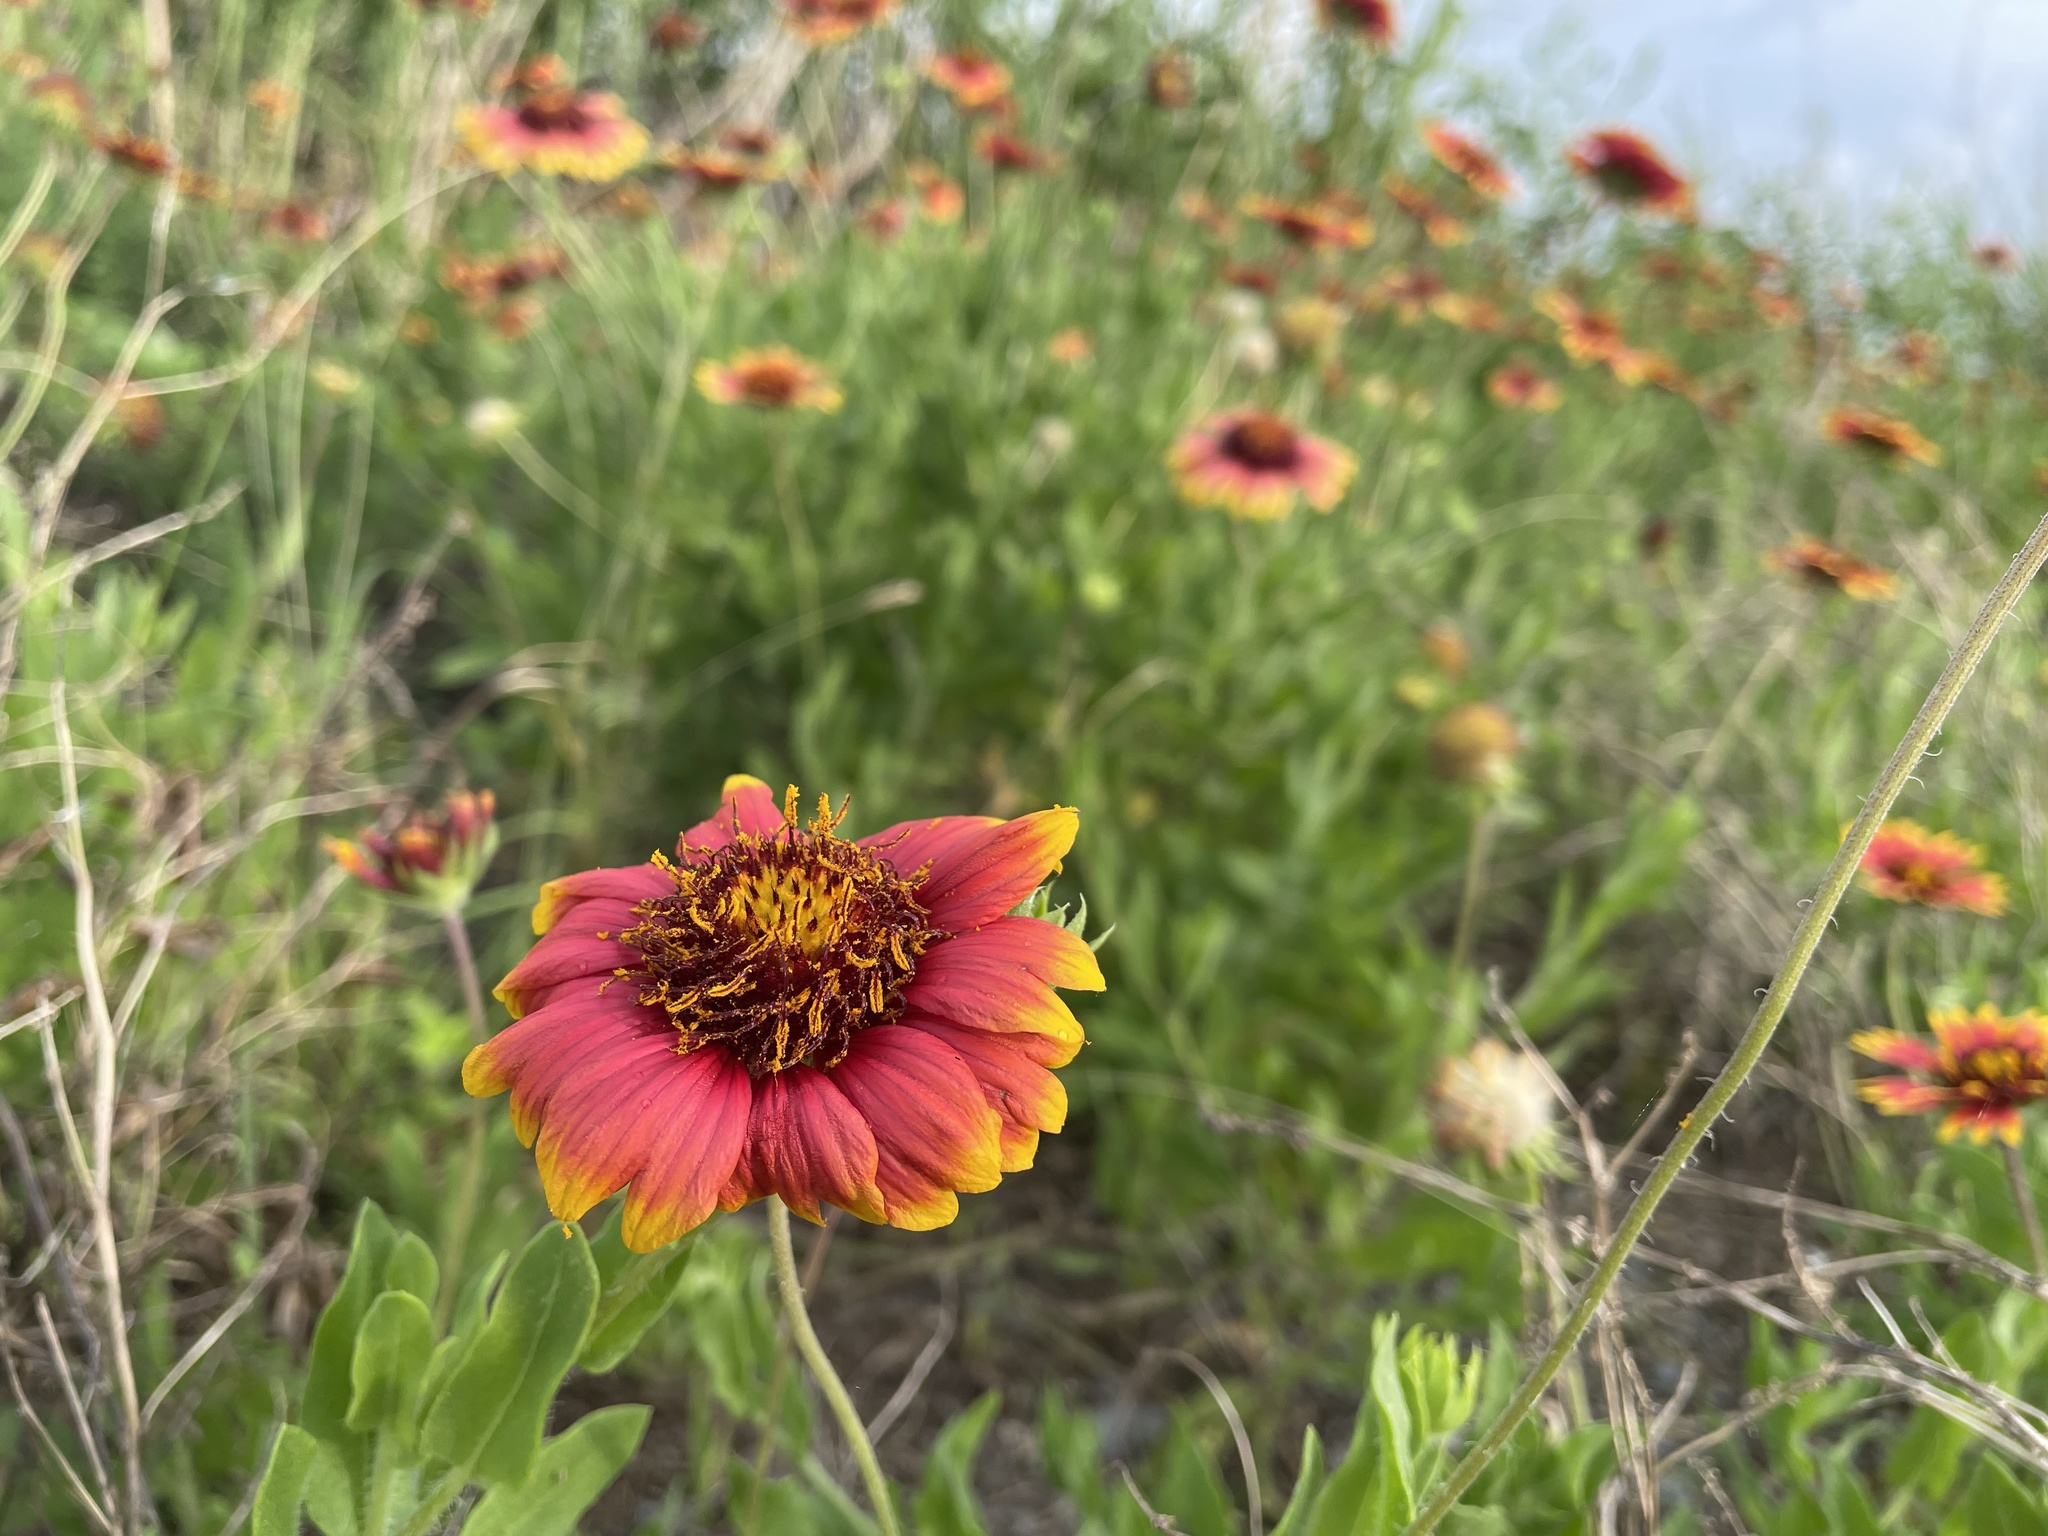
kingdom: Plantae
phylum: Tracheophyta
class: Magnoliopsida
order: Asterales
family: Asteraceae
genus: Gaillardia
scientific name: Gaillardia pulchella
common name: Firewheel
